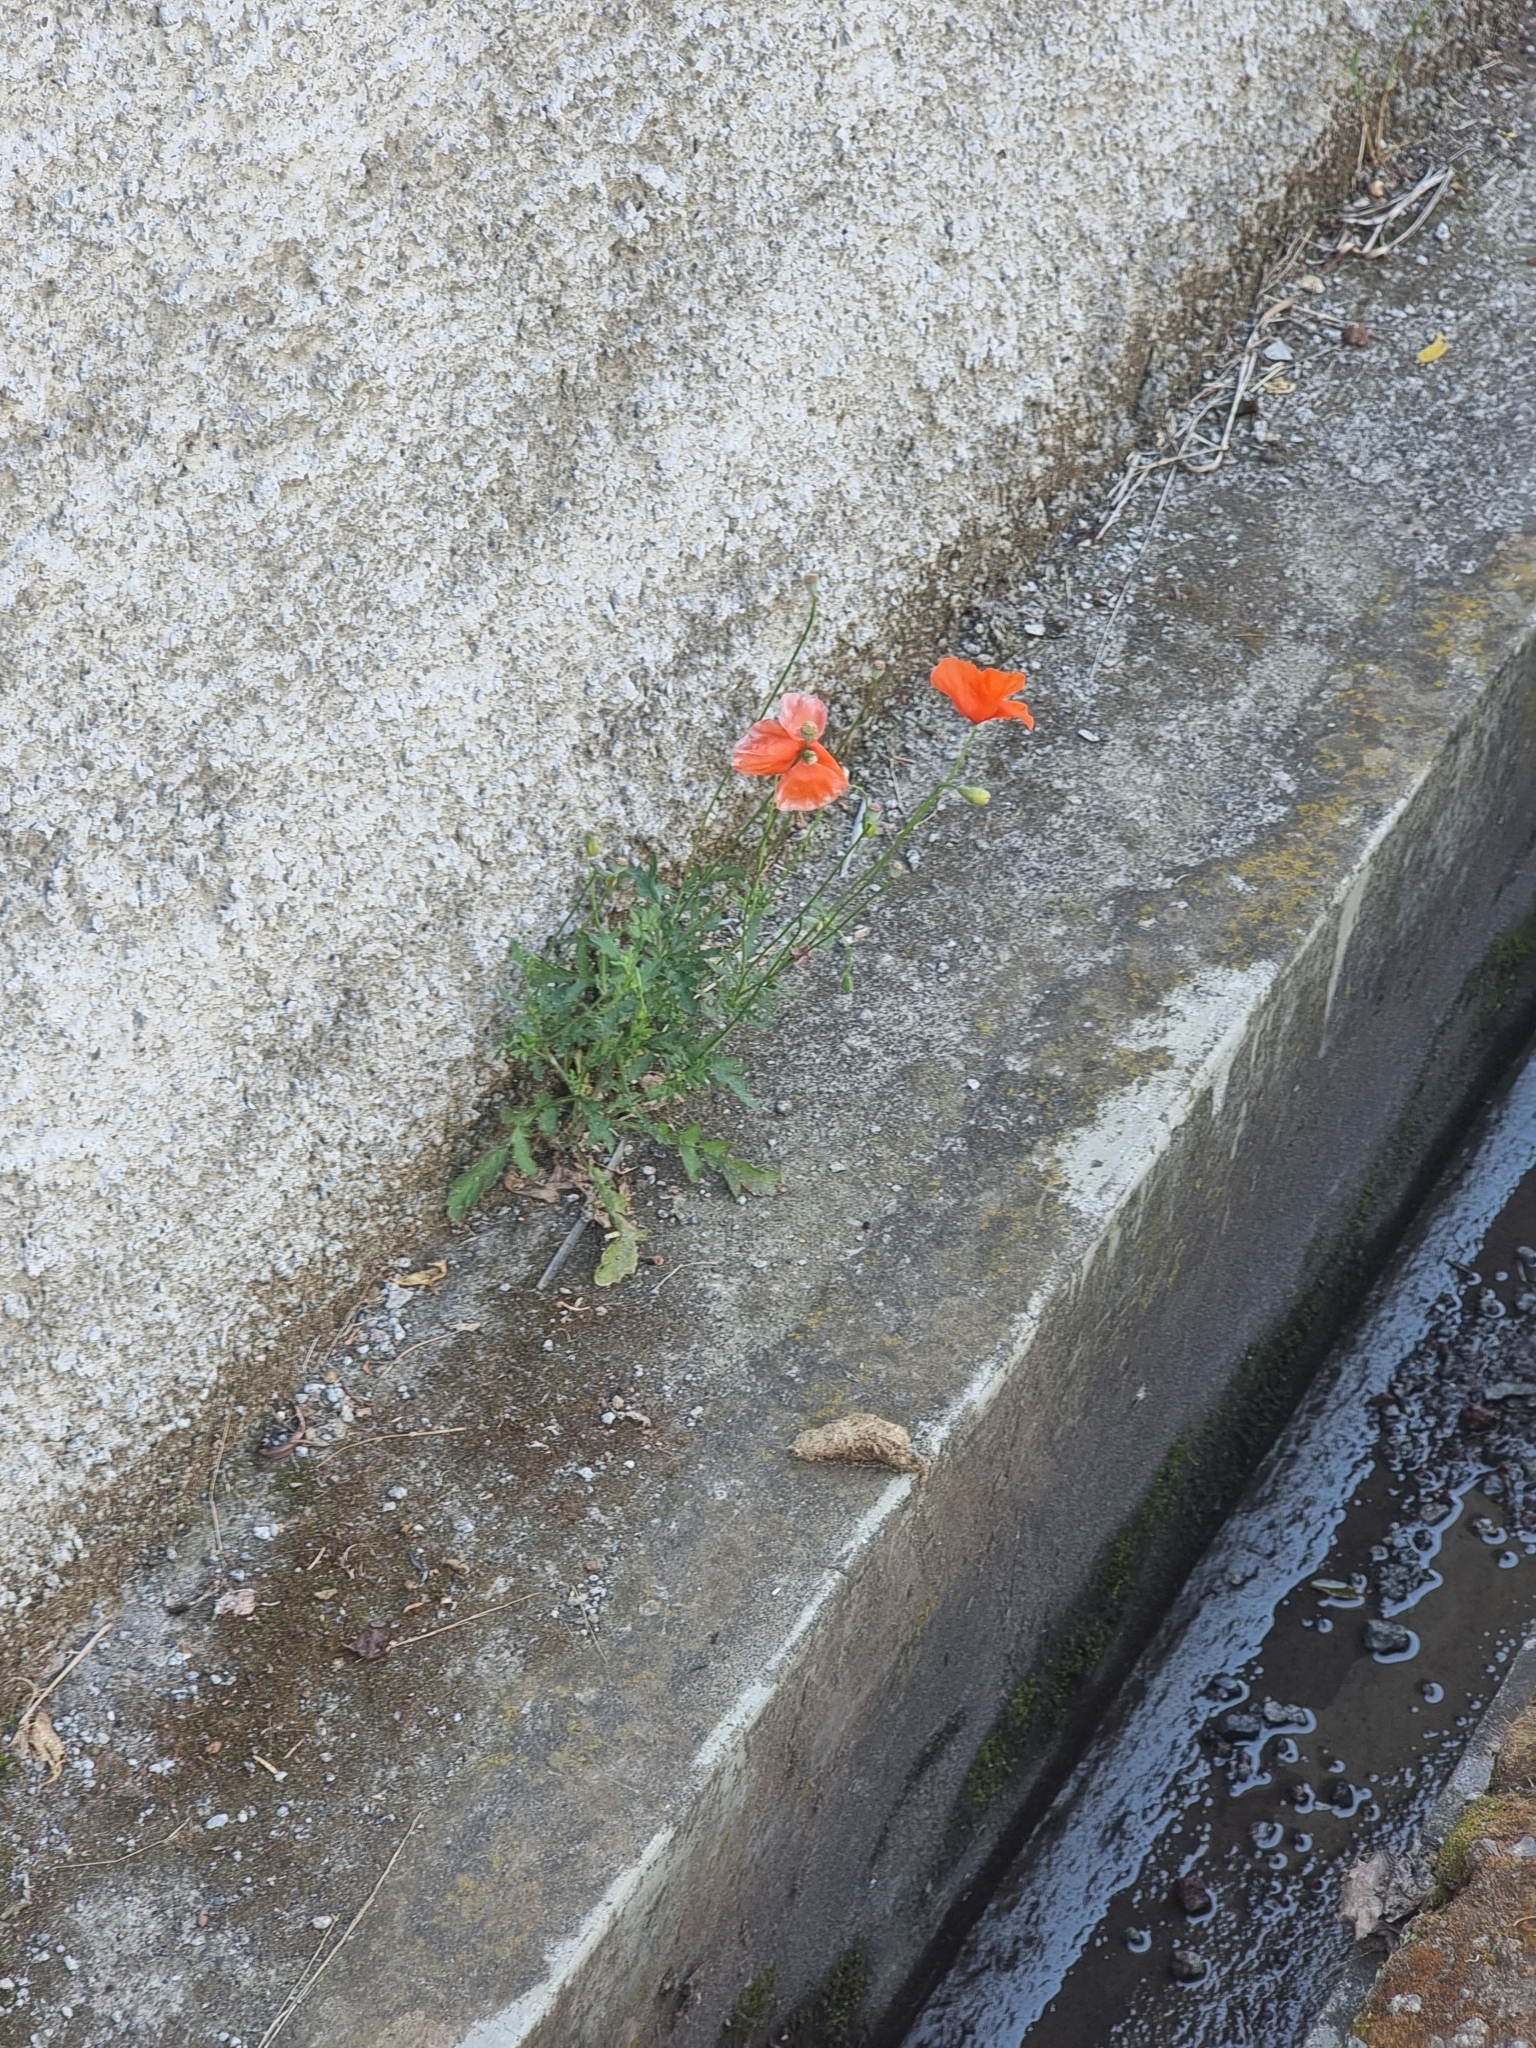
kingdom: Plantae
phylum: Tracheophyta
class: Magnoliopsida
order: Ranunculales
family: Papaveraceae
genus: Papaver
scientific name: Papaver rhoeas
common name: Corn poppy
